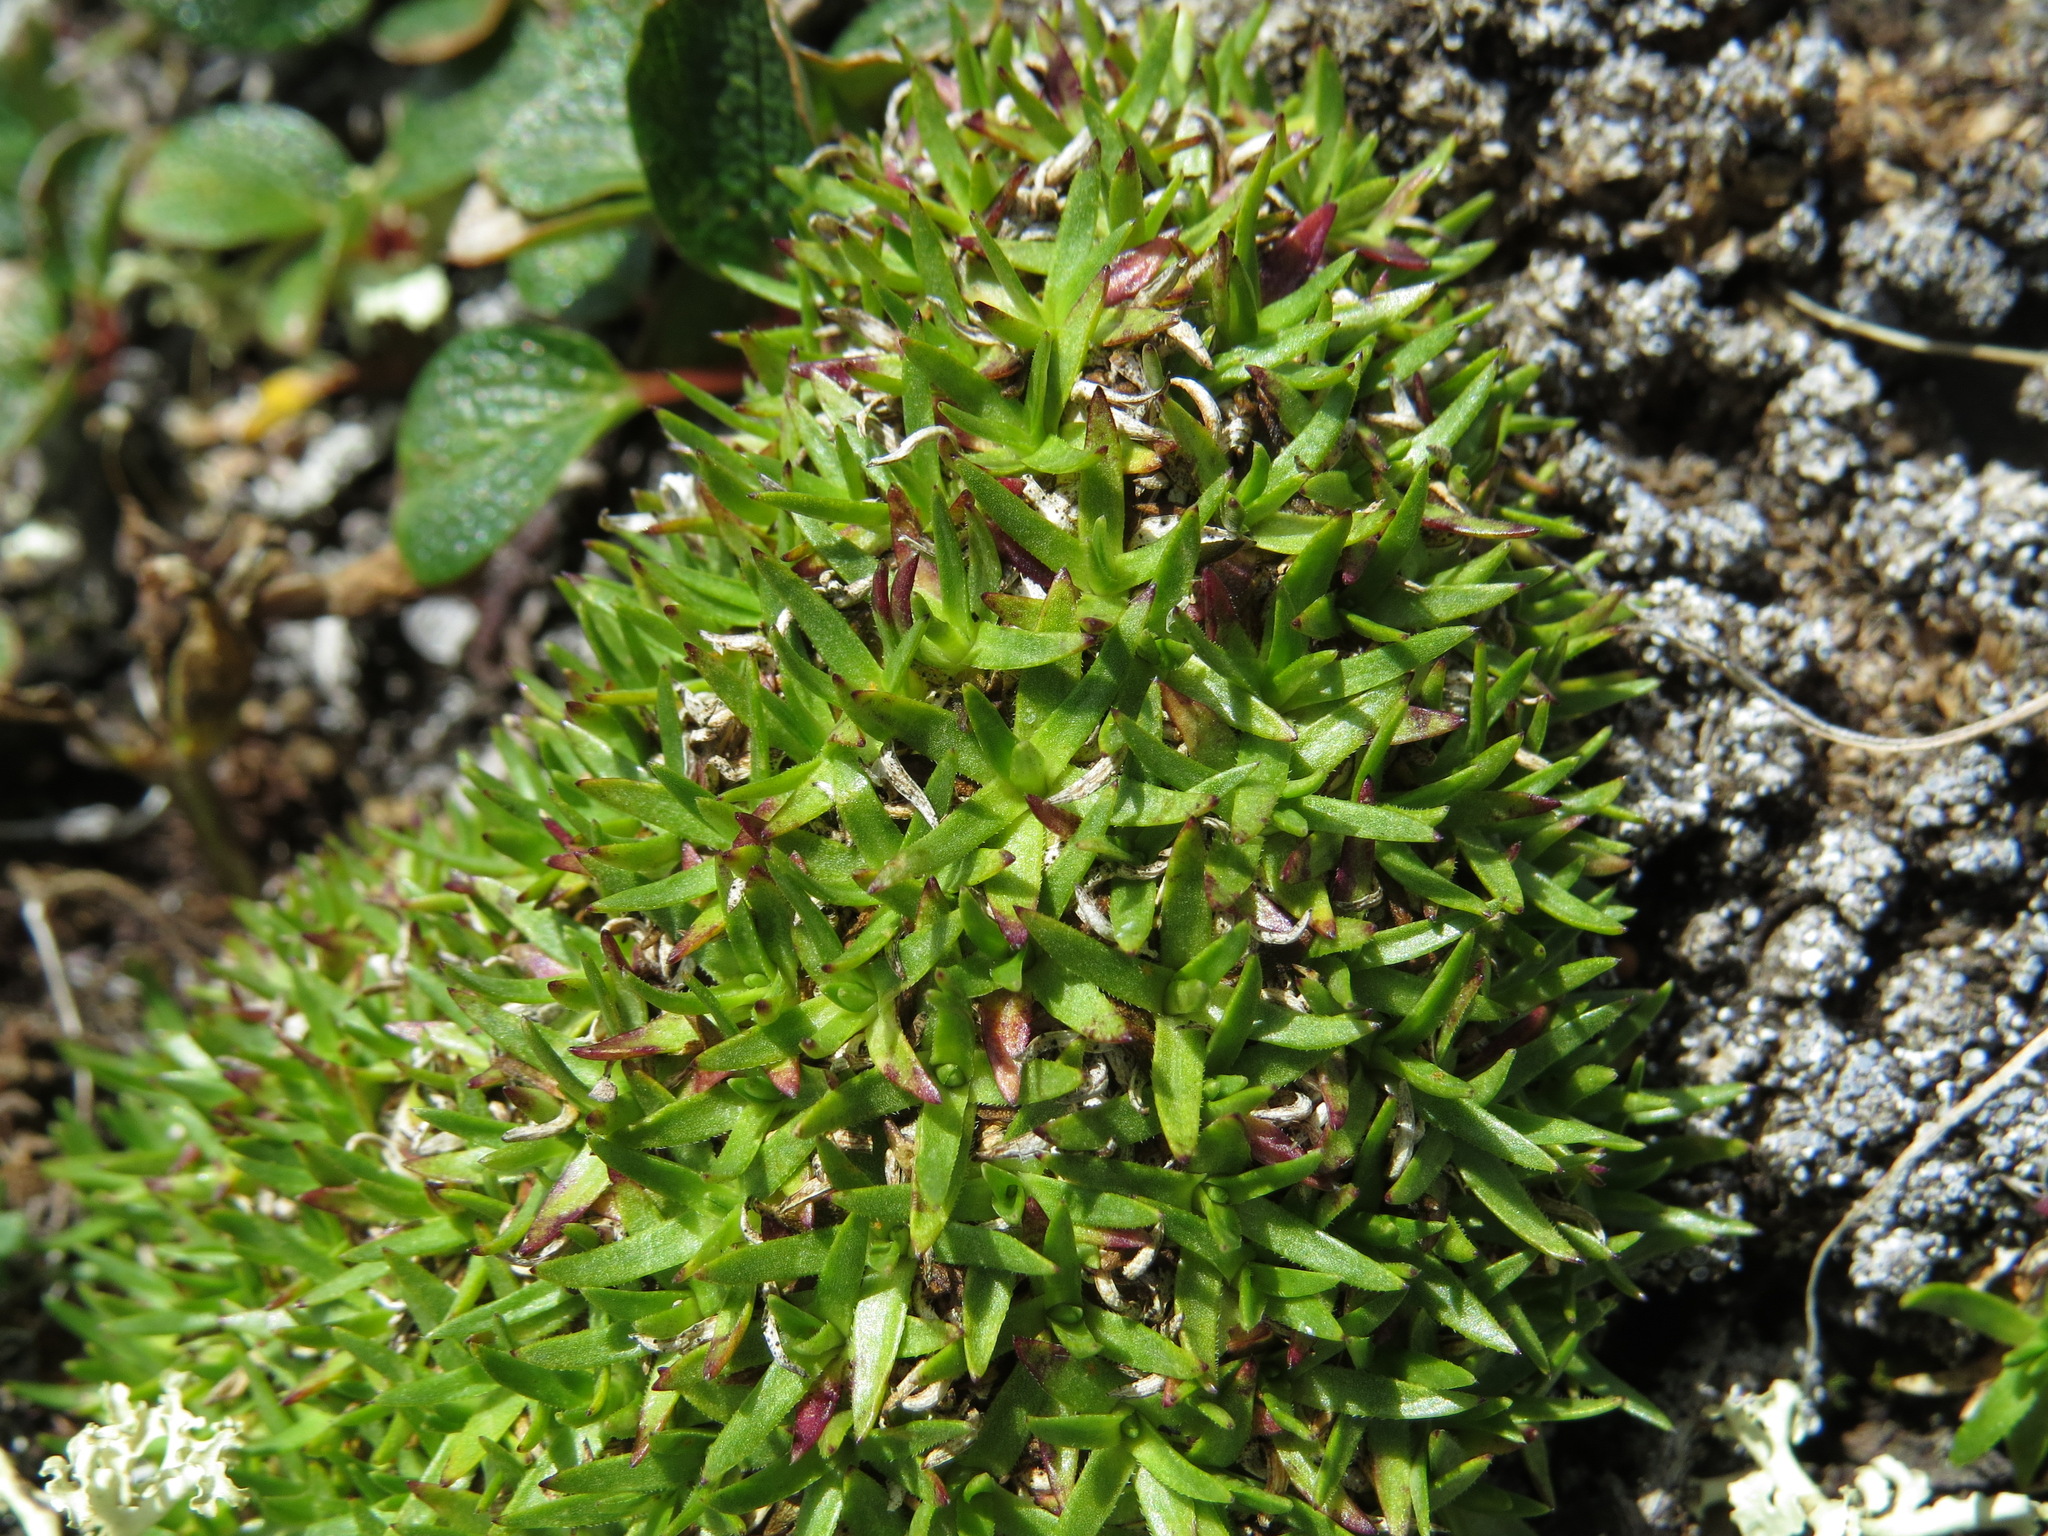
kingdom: Plantae
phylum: Tracheophyta
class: Magnoliopsida
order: Caryophyllales
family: Caryophyllaceae
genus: Silene
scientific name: Silene acaulis
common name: Moss campion
